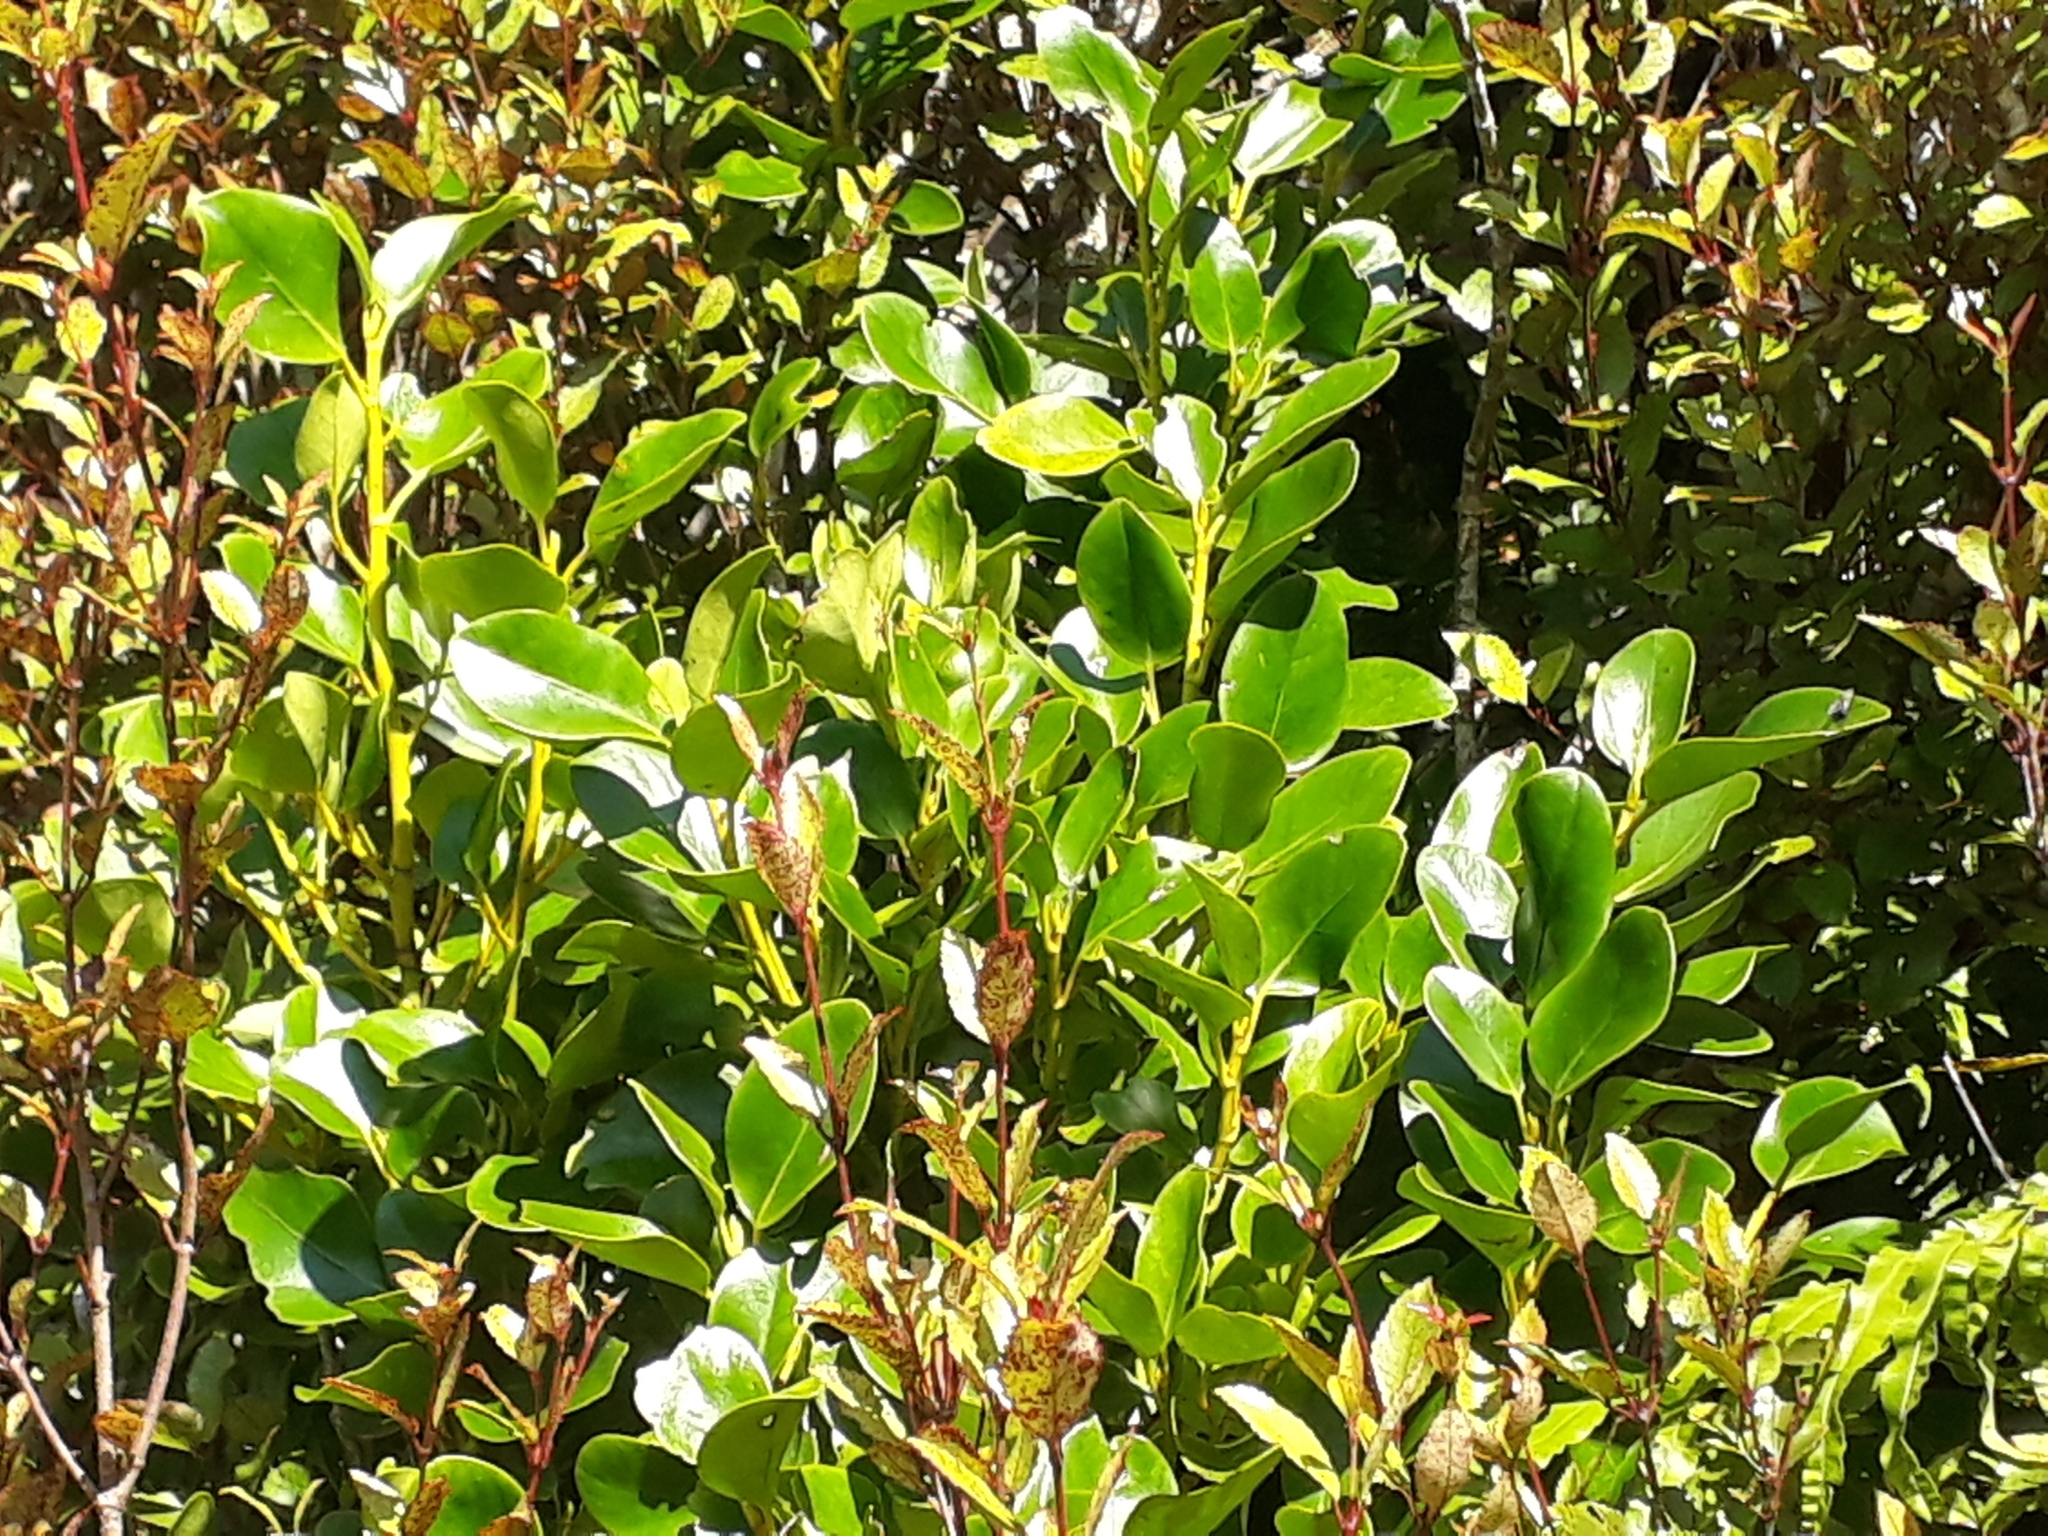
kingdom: Plantae
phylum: Tracheophyta
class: Magnoliopsida
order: Apiales
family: Griseliniaceae
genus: Griselinia
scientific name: Griselinia littoralis
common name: New zealand broadleaf
